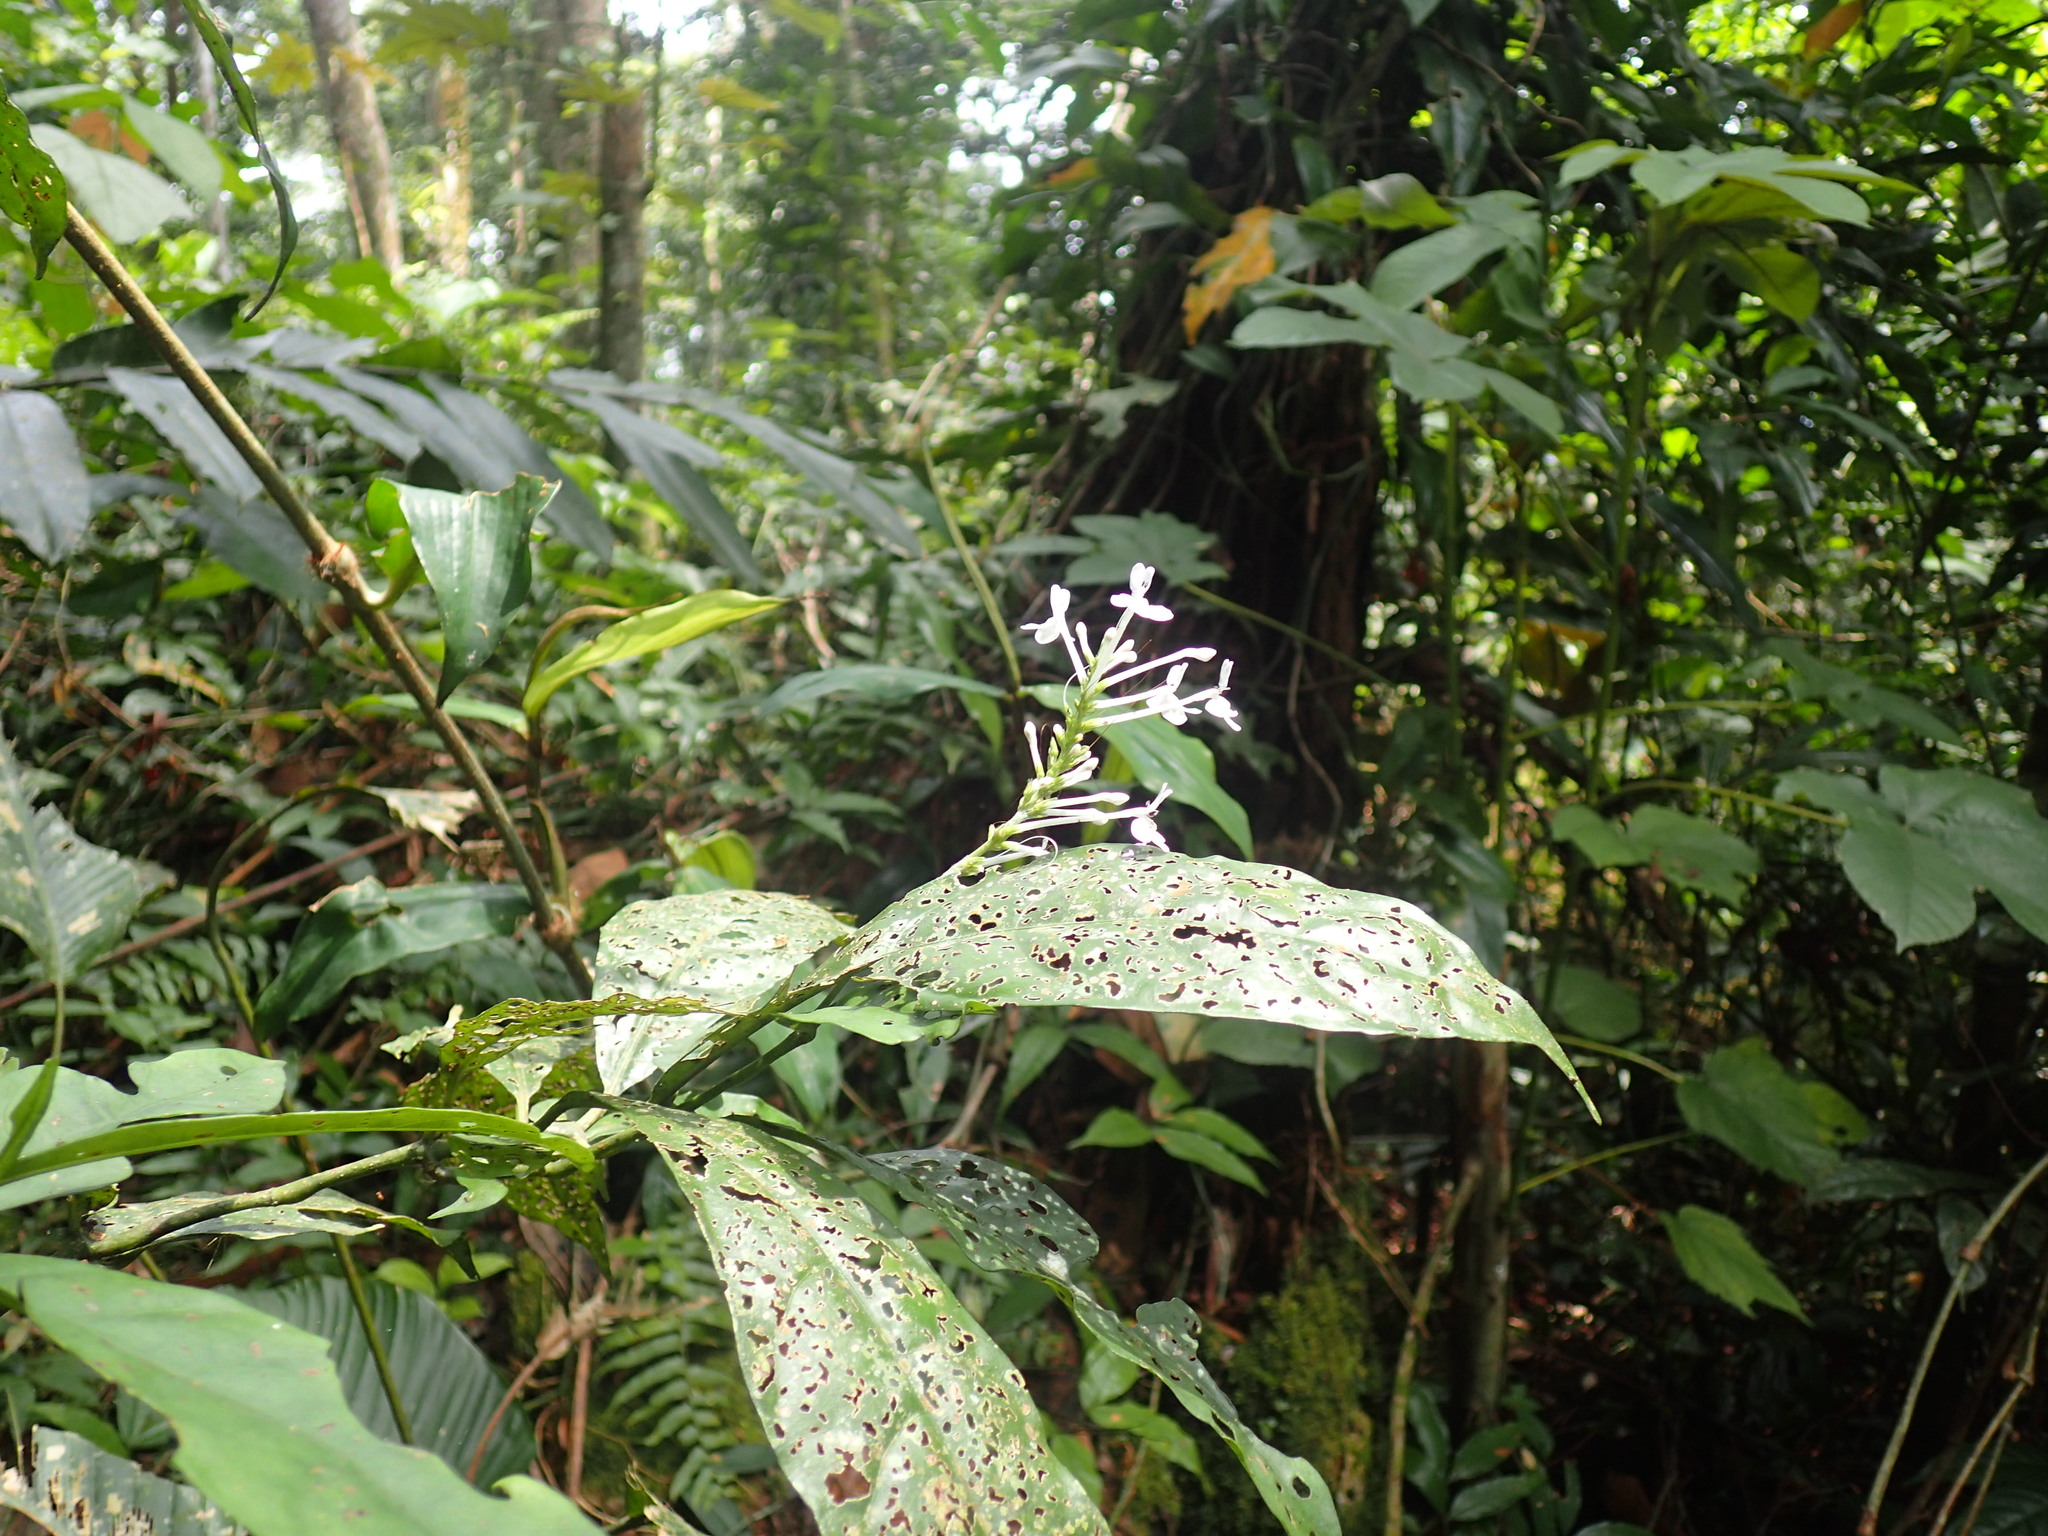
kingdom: Plantae
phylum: Tracheophyta
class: Magnoliopsida
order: Lamiales
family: Acanthaceae
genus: Pseuderanthemum
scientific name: Pseuderanthemum ludovicianum
